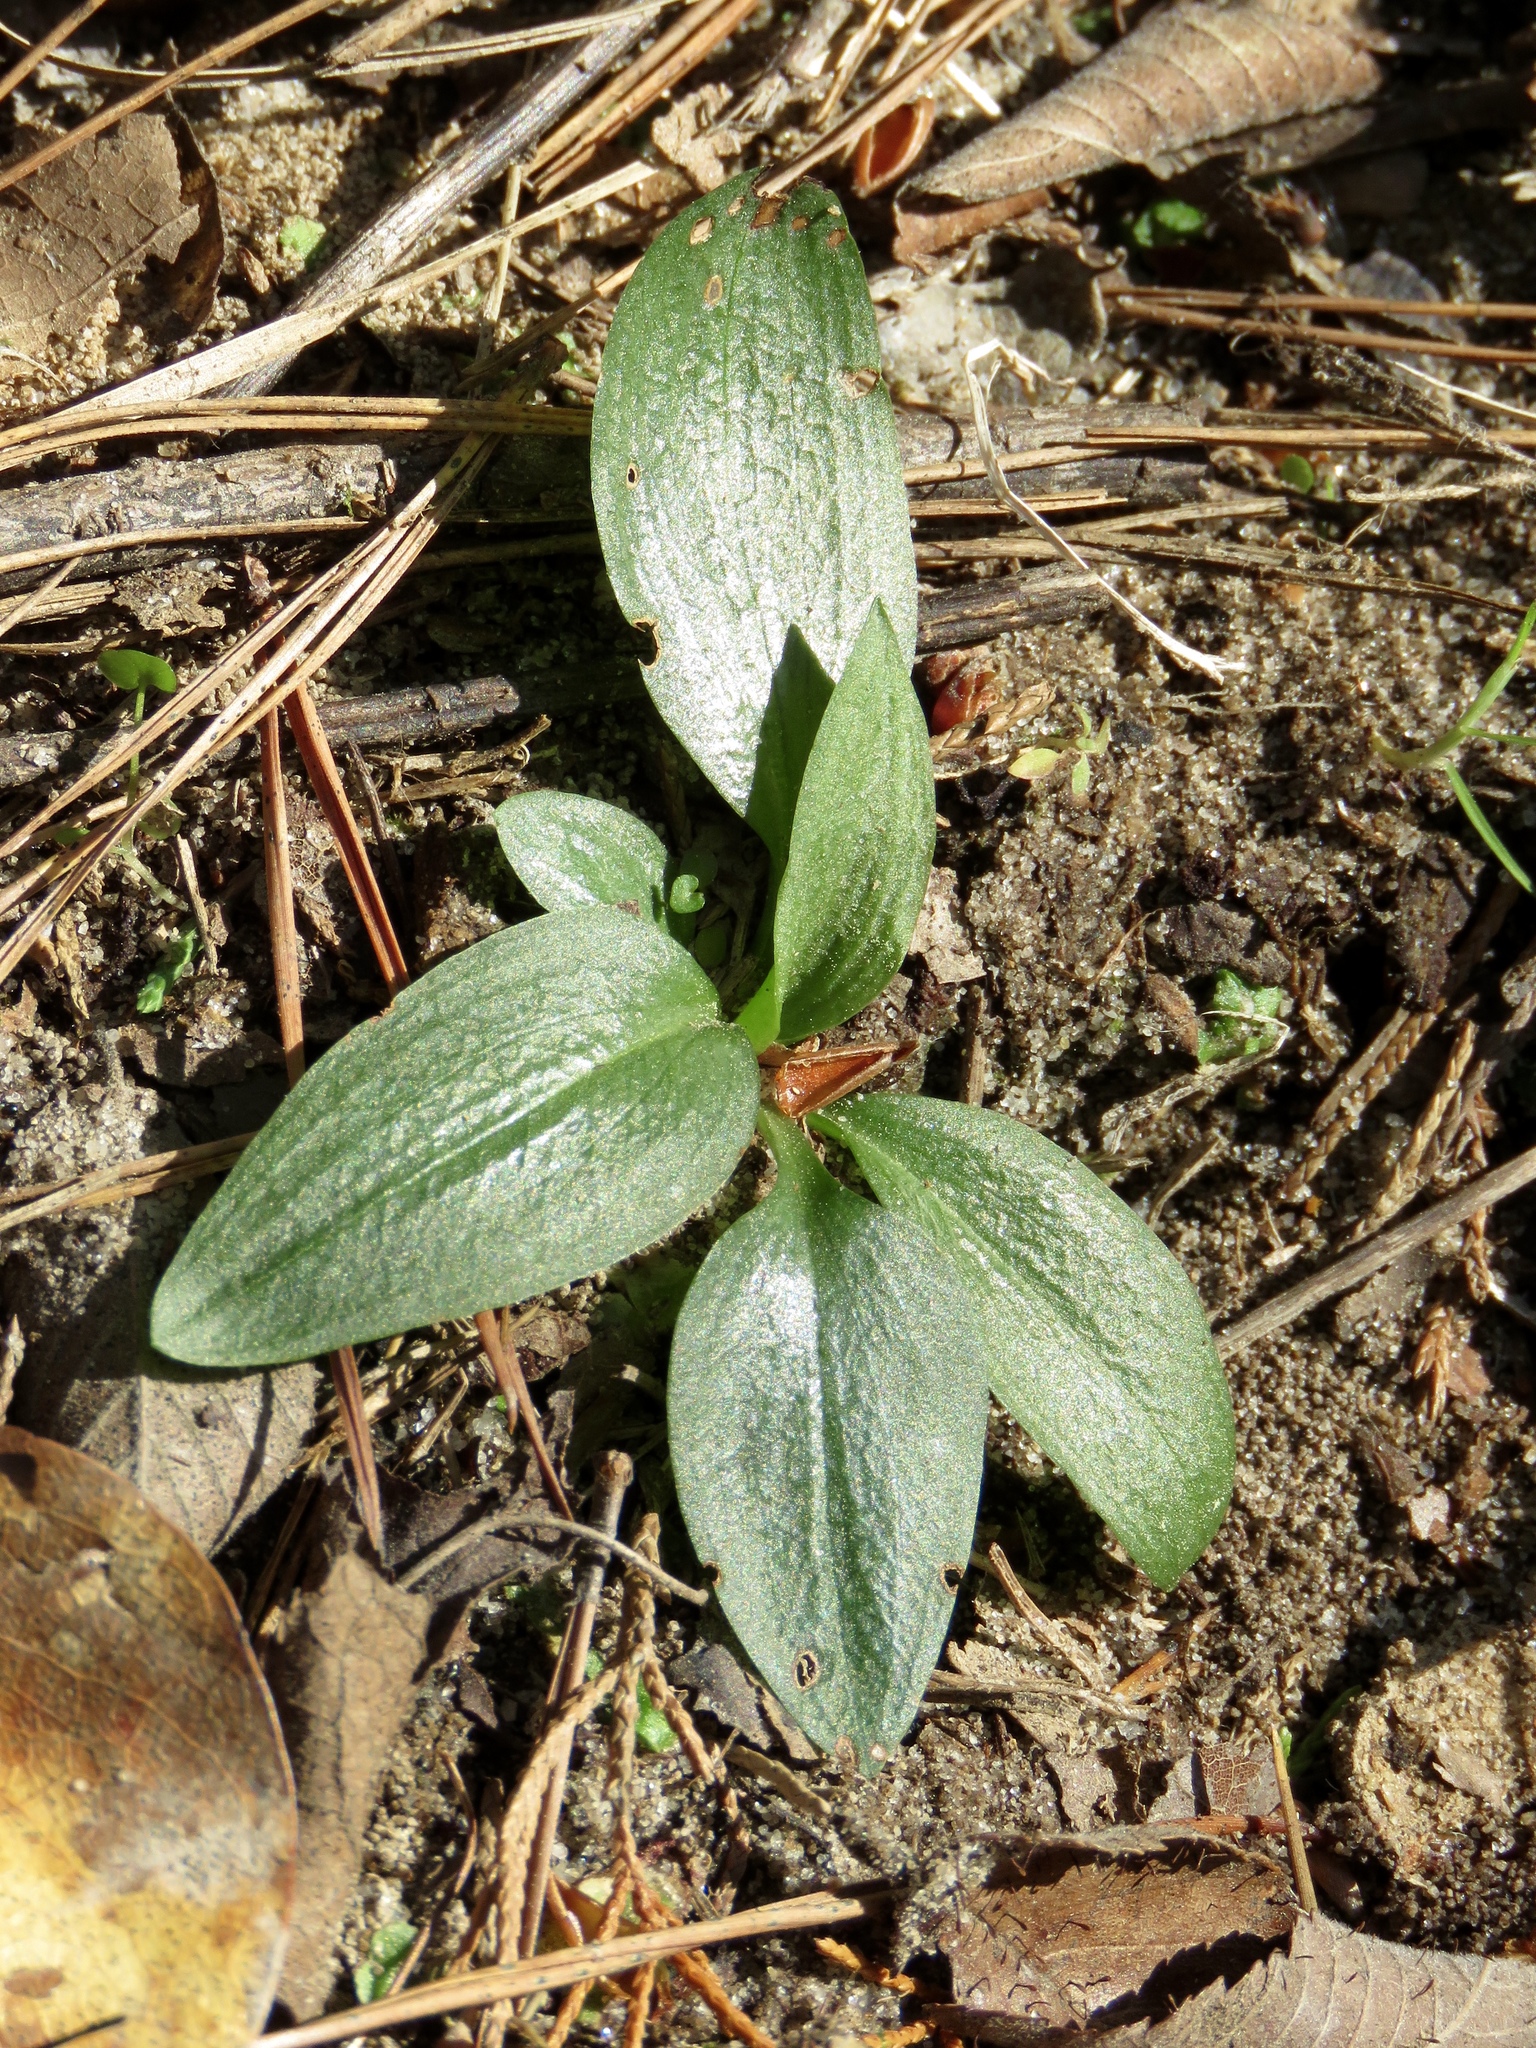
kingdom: Plantae
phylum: Tracheophyta
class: Liliopsida
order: Asparagales
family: Orchidaceae
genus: Spiranthes
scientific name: Spiranthes tuberosa
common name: Little ladies'-tresses
